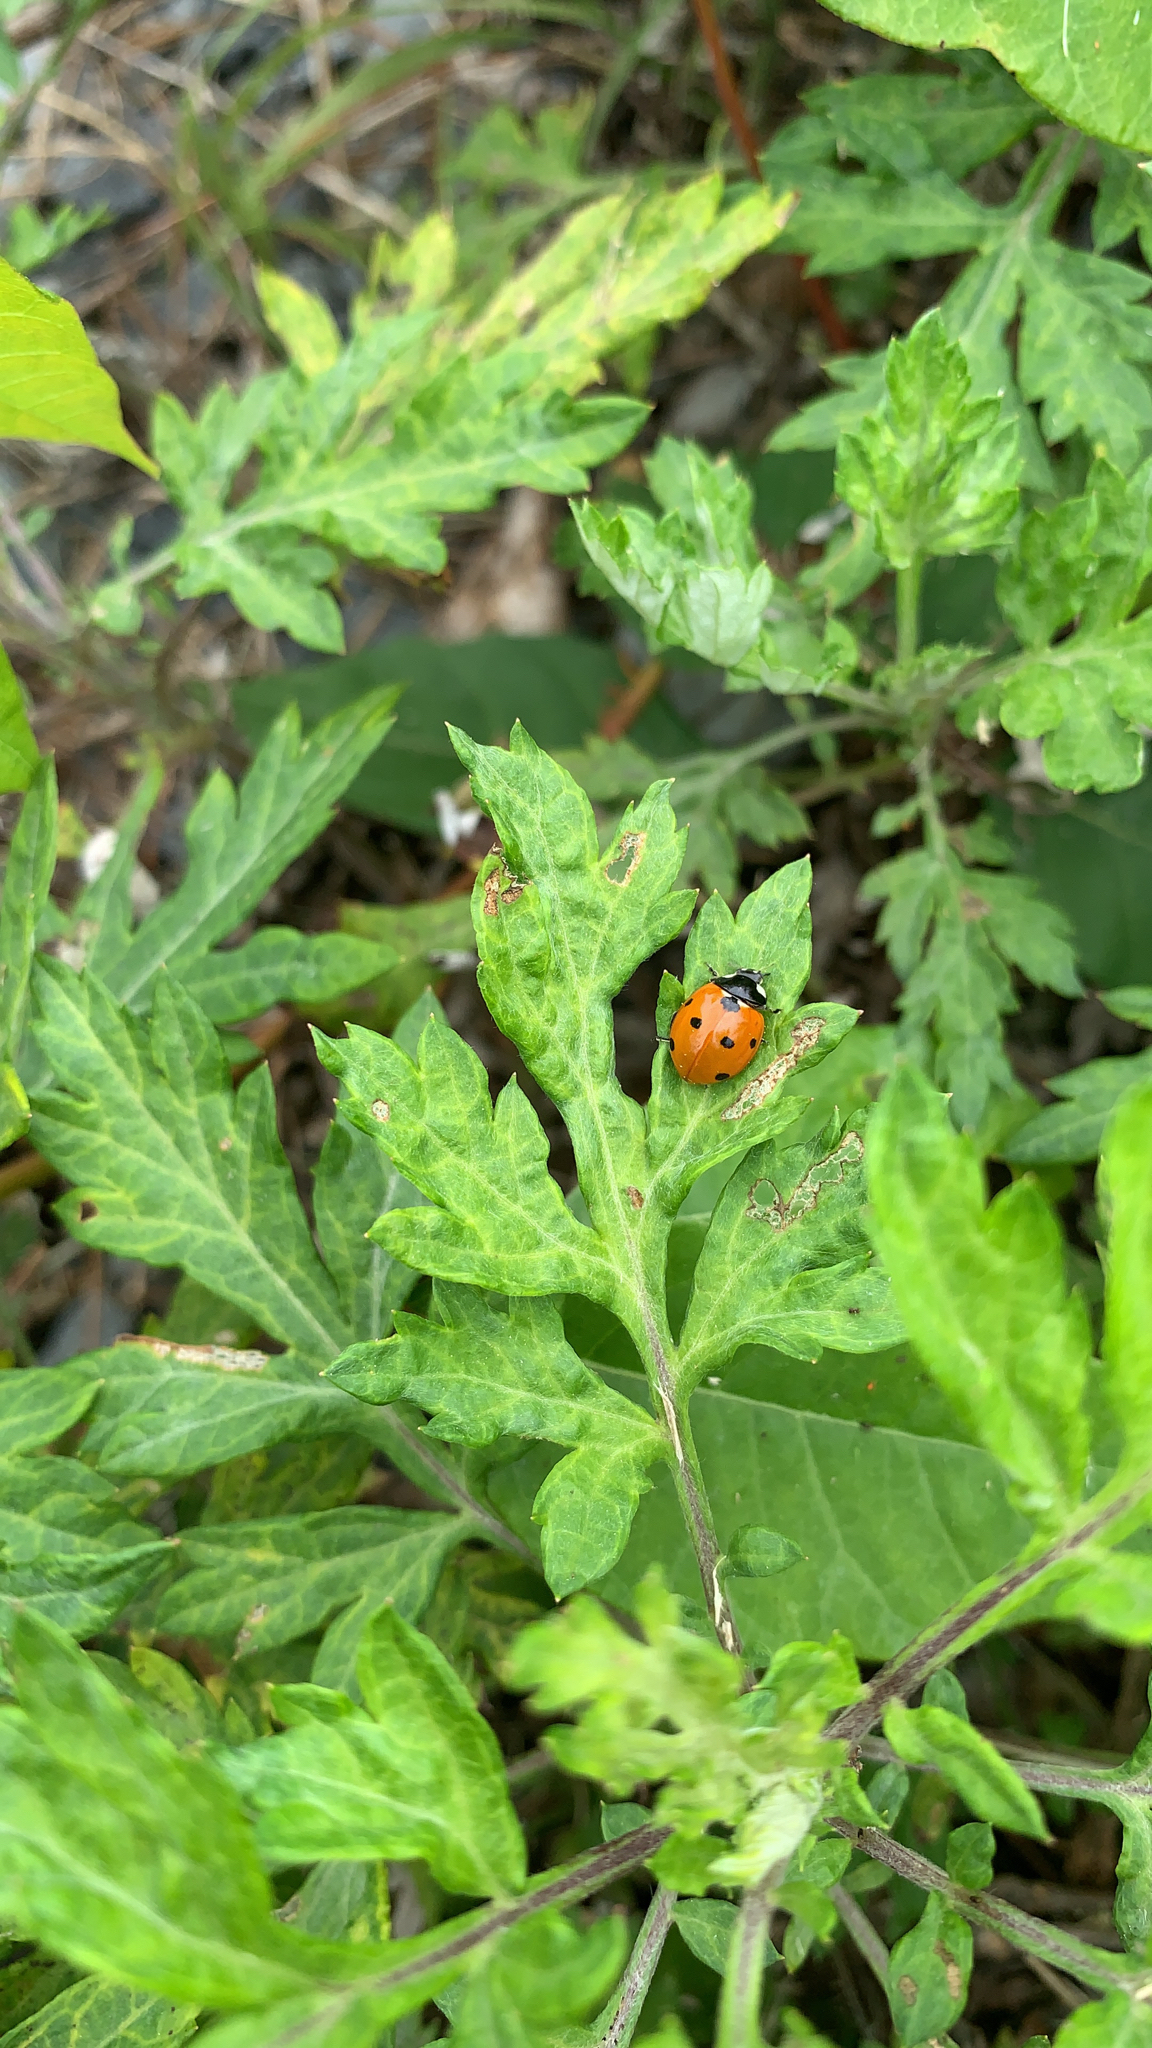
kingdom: Animalia
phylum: Arthropoda
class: Insecta
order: Coleoptera
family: Coccinellidae
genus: Coccinella
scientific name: Coccinella septempunctata
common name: Sevenspotted lady beetle
